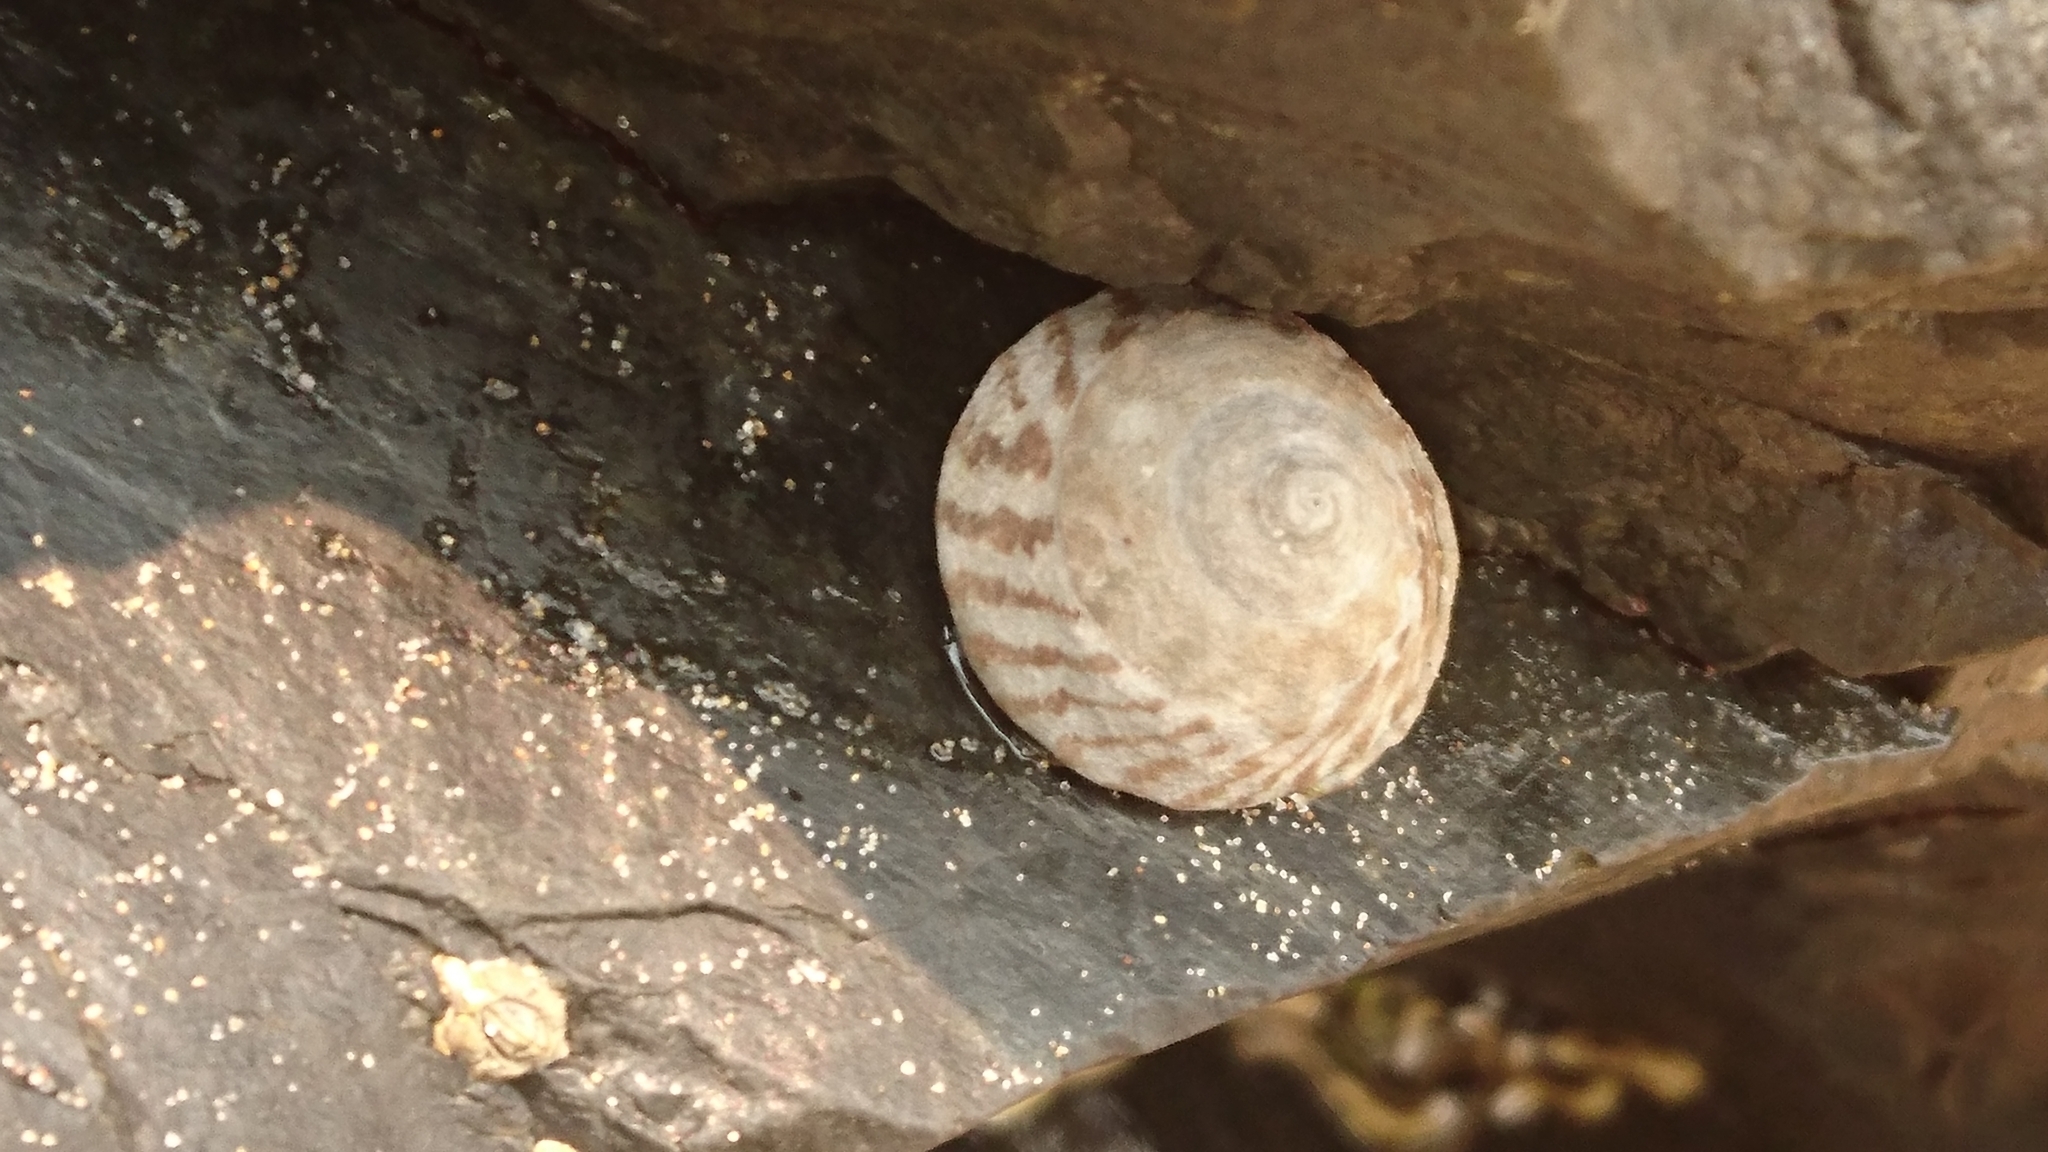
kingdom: Animalia
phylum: Mollusca
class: Gastropoda
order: Littorinimorpha
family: Littorinidae
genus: Bembicium
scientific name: Bembicium nanum
